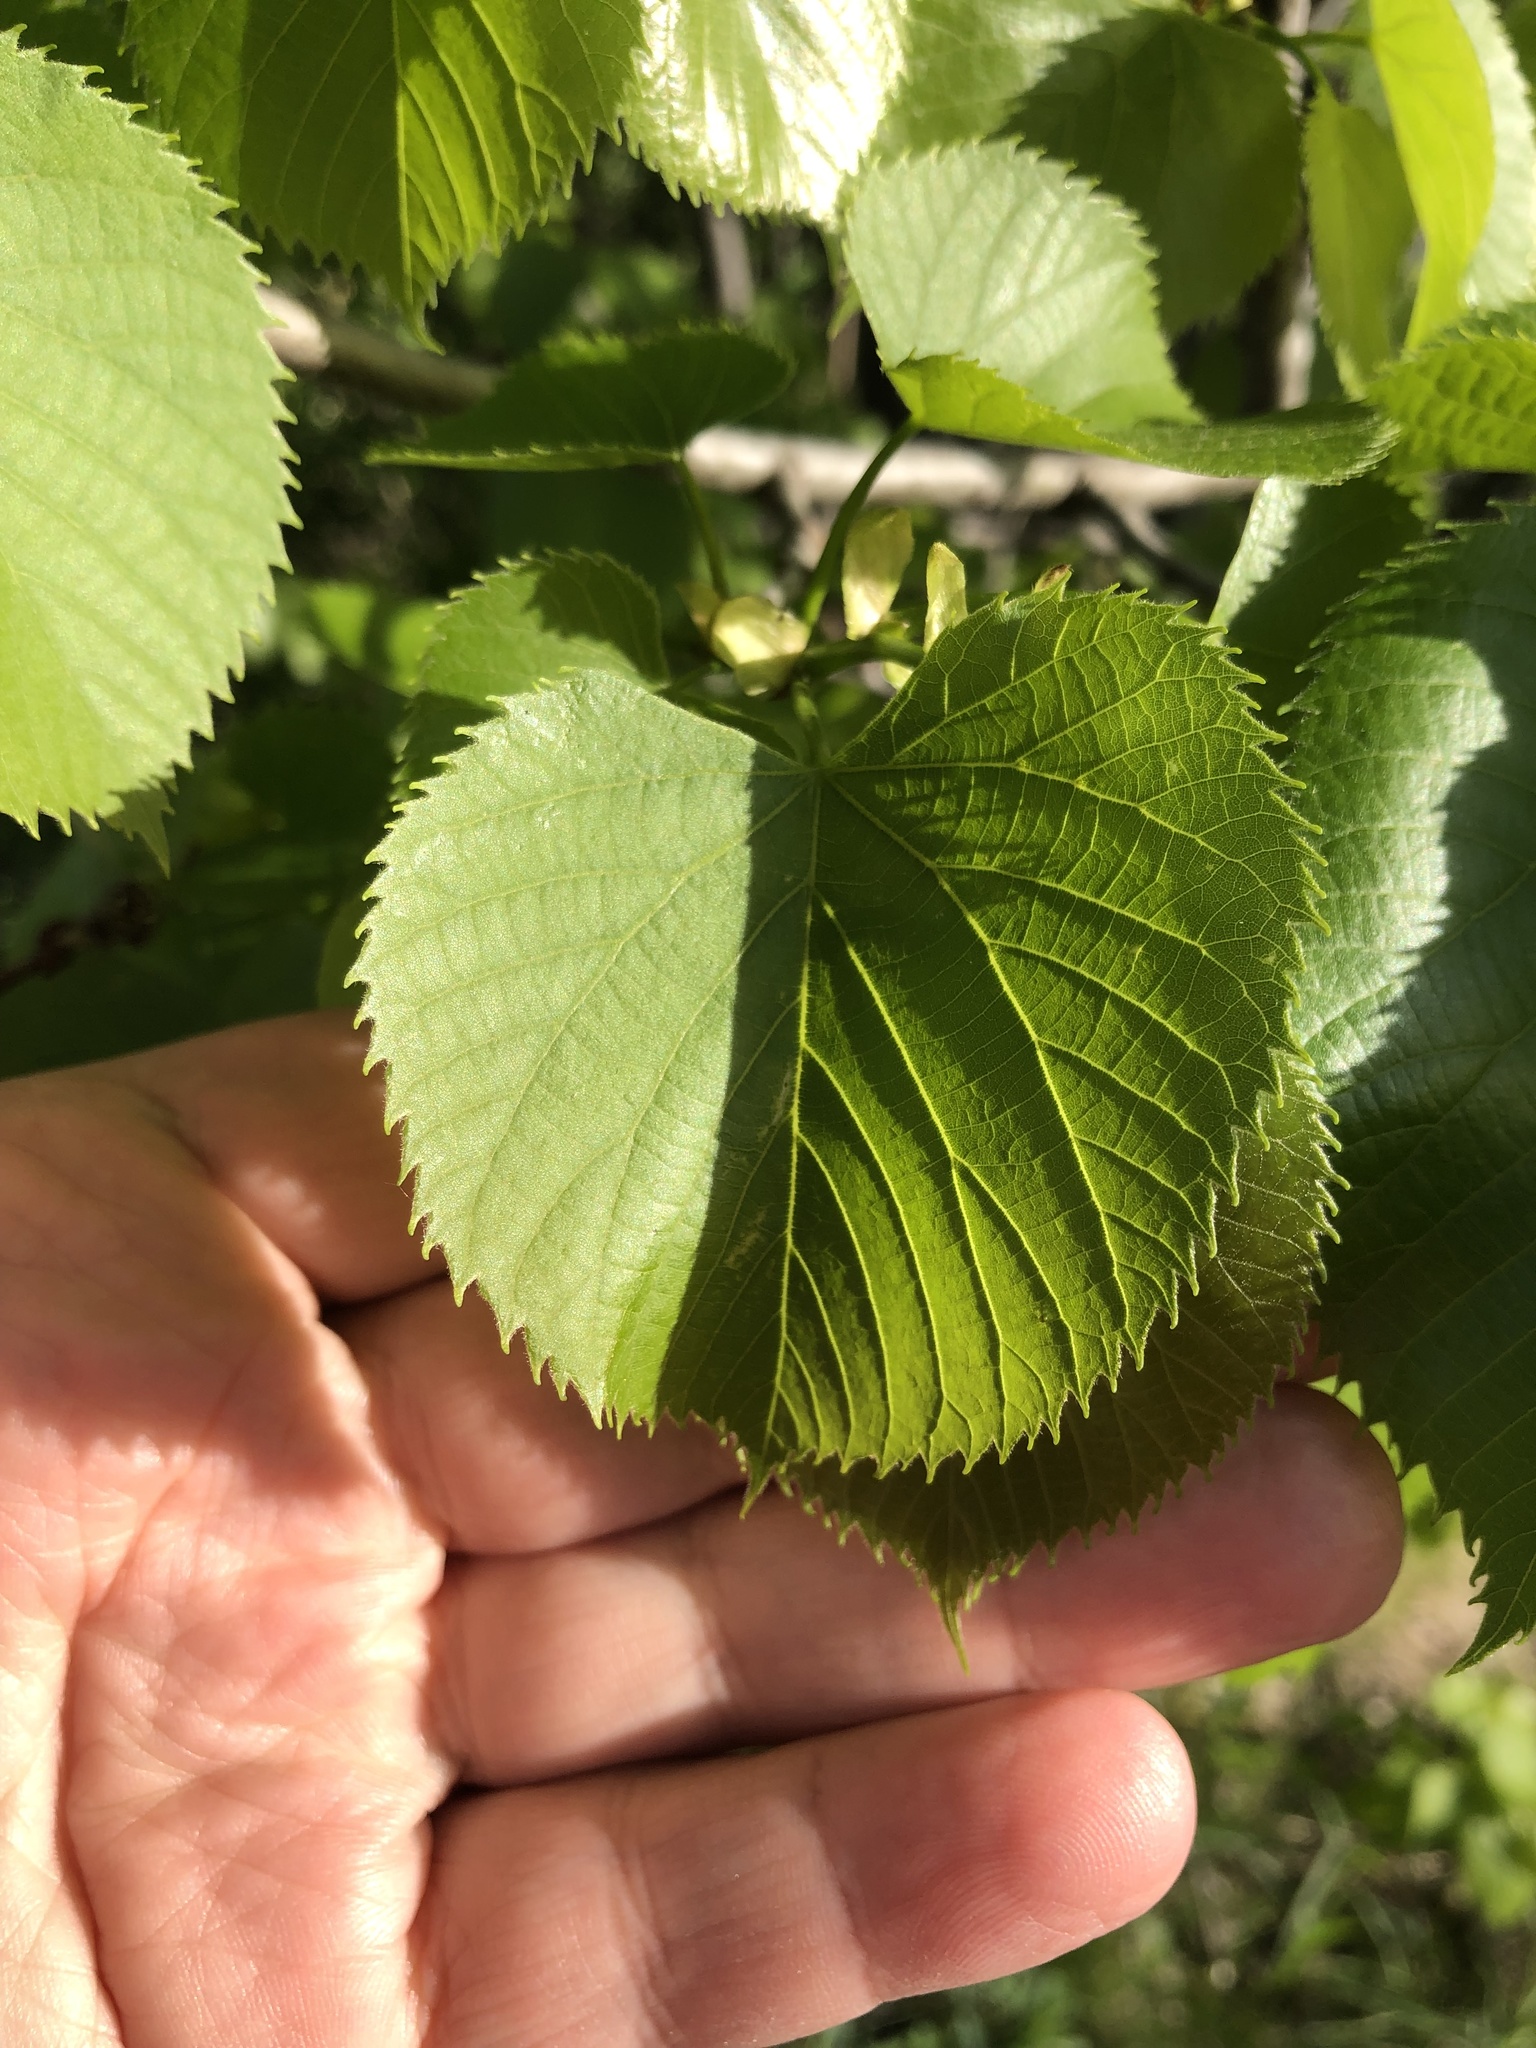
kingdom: Plantae
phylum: Tracheophyta
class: Magnoliopsida
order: Malvales
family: Malvaceae
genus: Tilia
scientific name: Tilia americana
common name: Basswood
